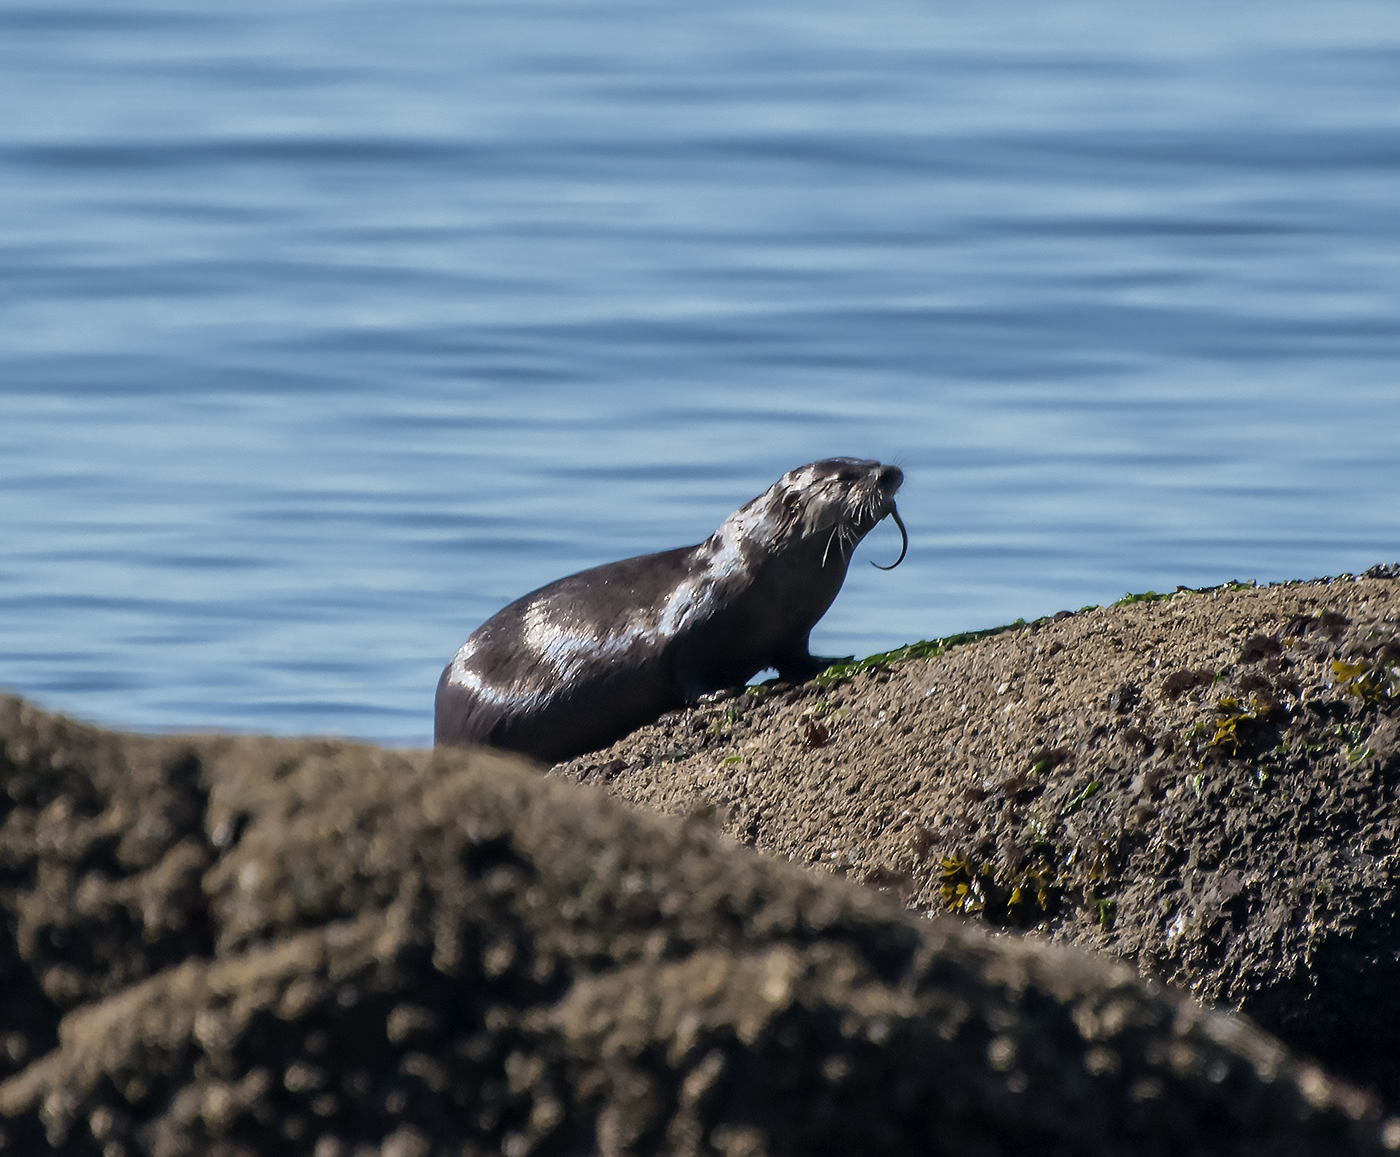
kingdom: Animalia
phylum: Chordata
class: Mammalia
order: Carnivora
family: Mustelidae
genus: Lontra
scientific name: Lontra canadensis
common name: North american river otter
